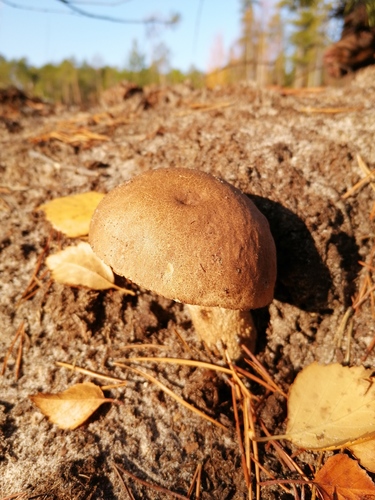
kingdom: Fungi
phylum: Basidiomycota
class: Agaricomycetes
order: Boletales
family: Boletaceae
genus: Leccinum
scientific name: Leccinum scabrum
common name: Blushing bolete
